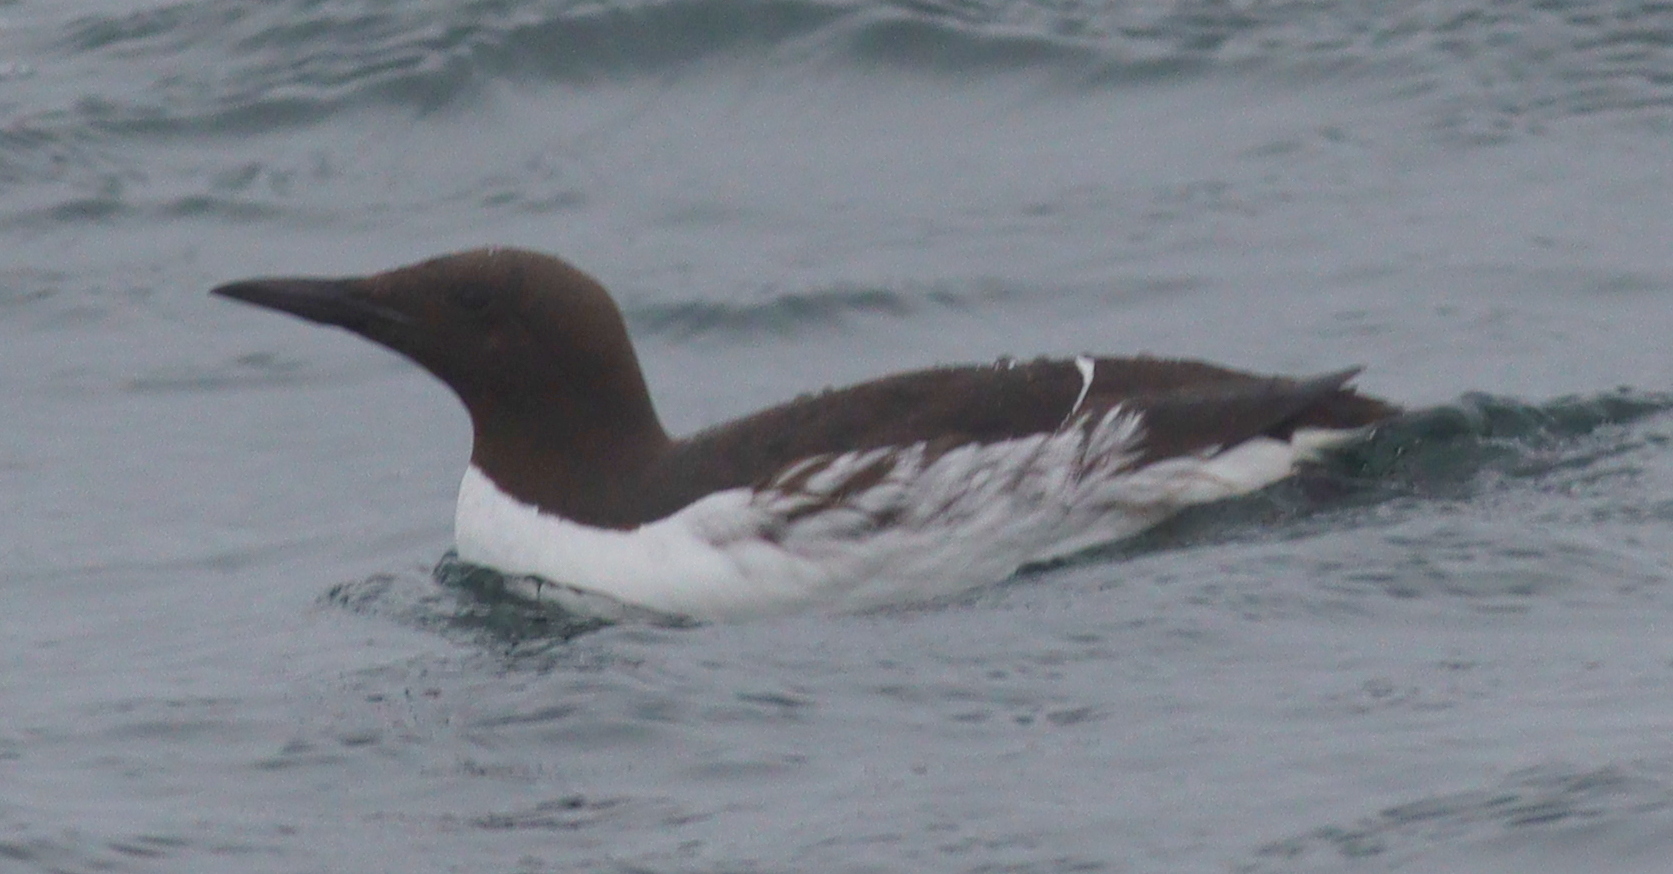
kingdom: Animalia
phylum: Chordata
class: Aves
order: Charadriiformes
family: Alcidae
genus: Uria
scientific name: Uria aalge
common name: Common murre
